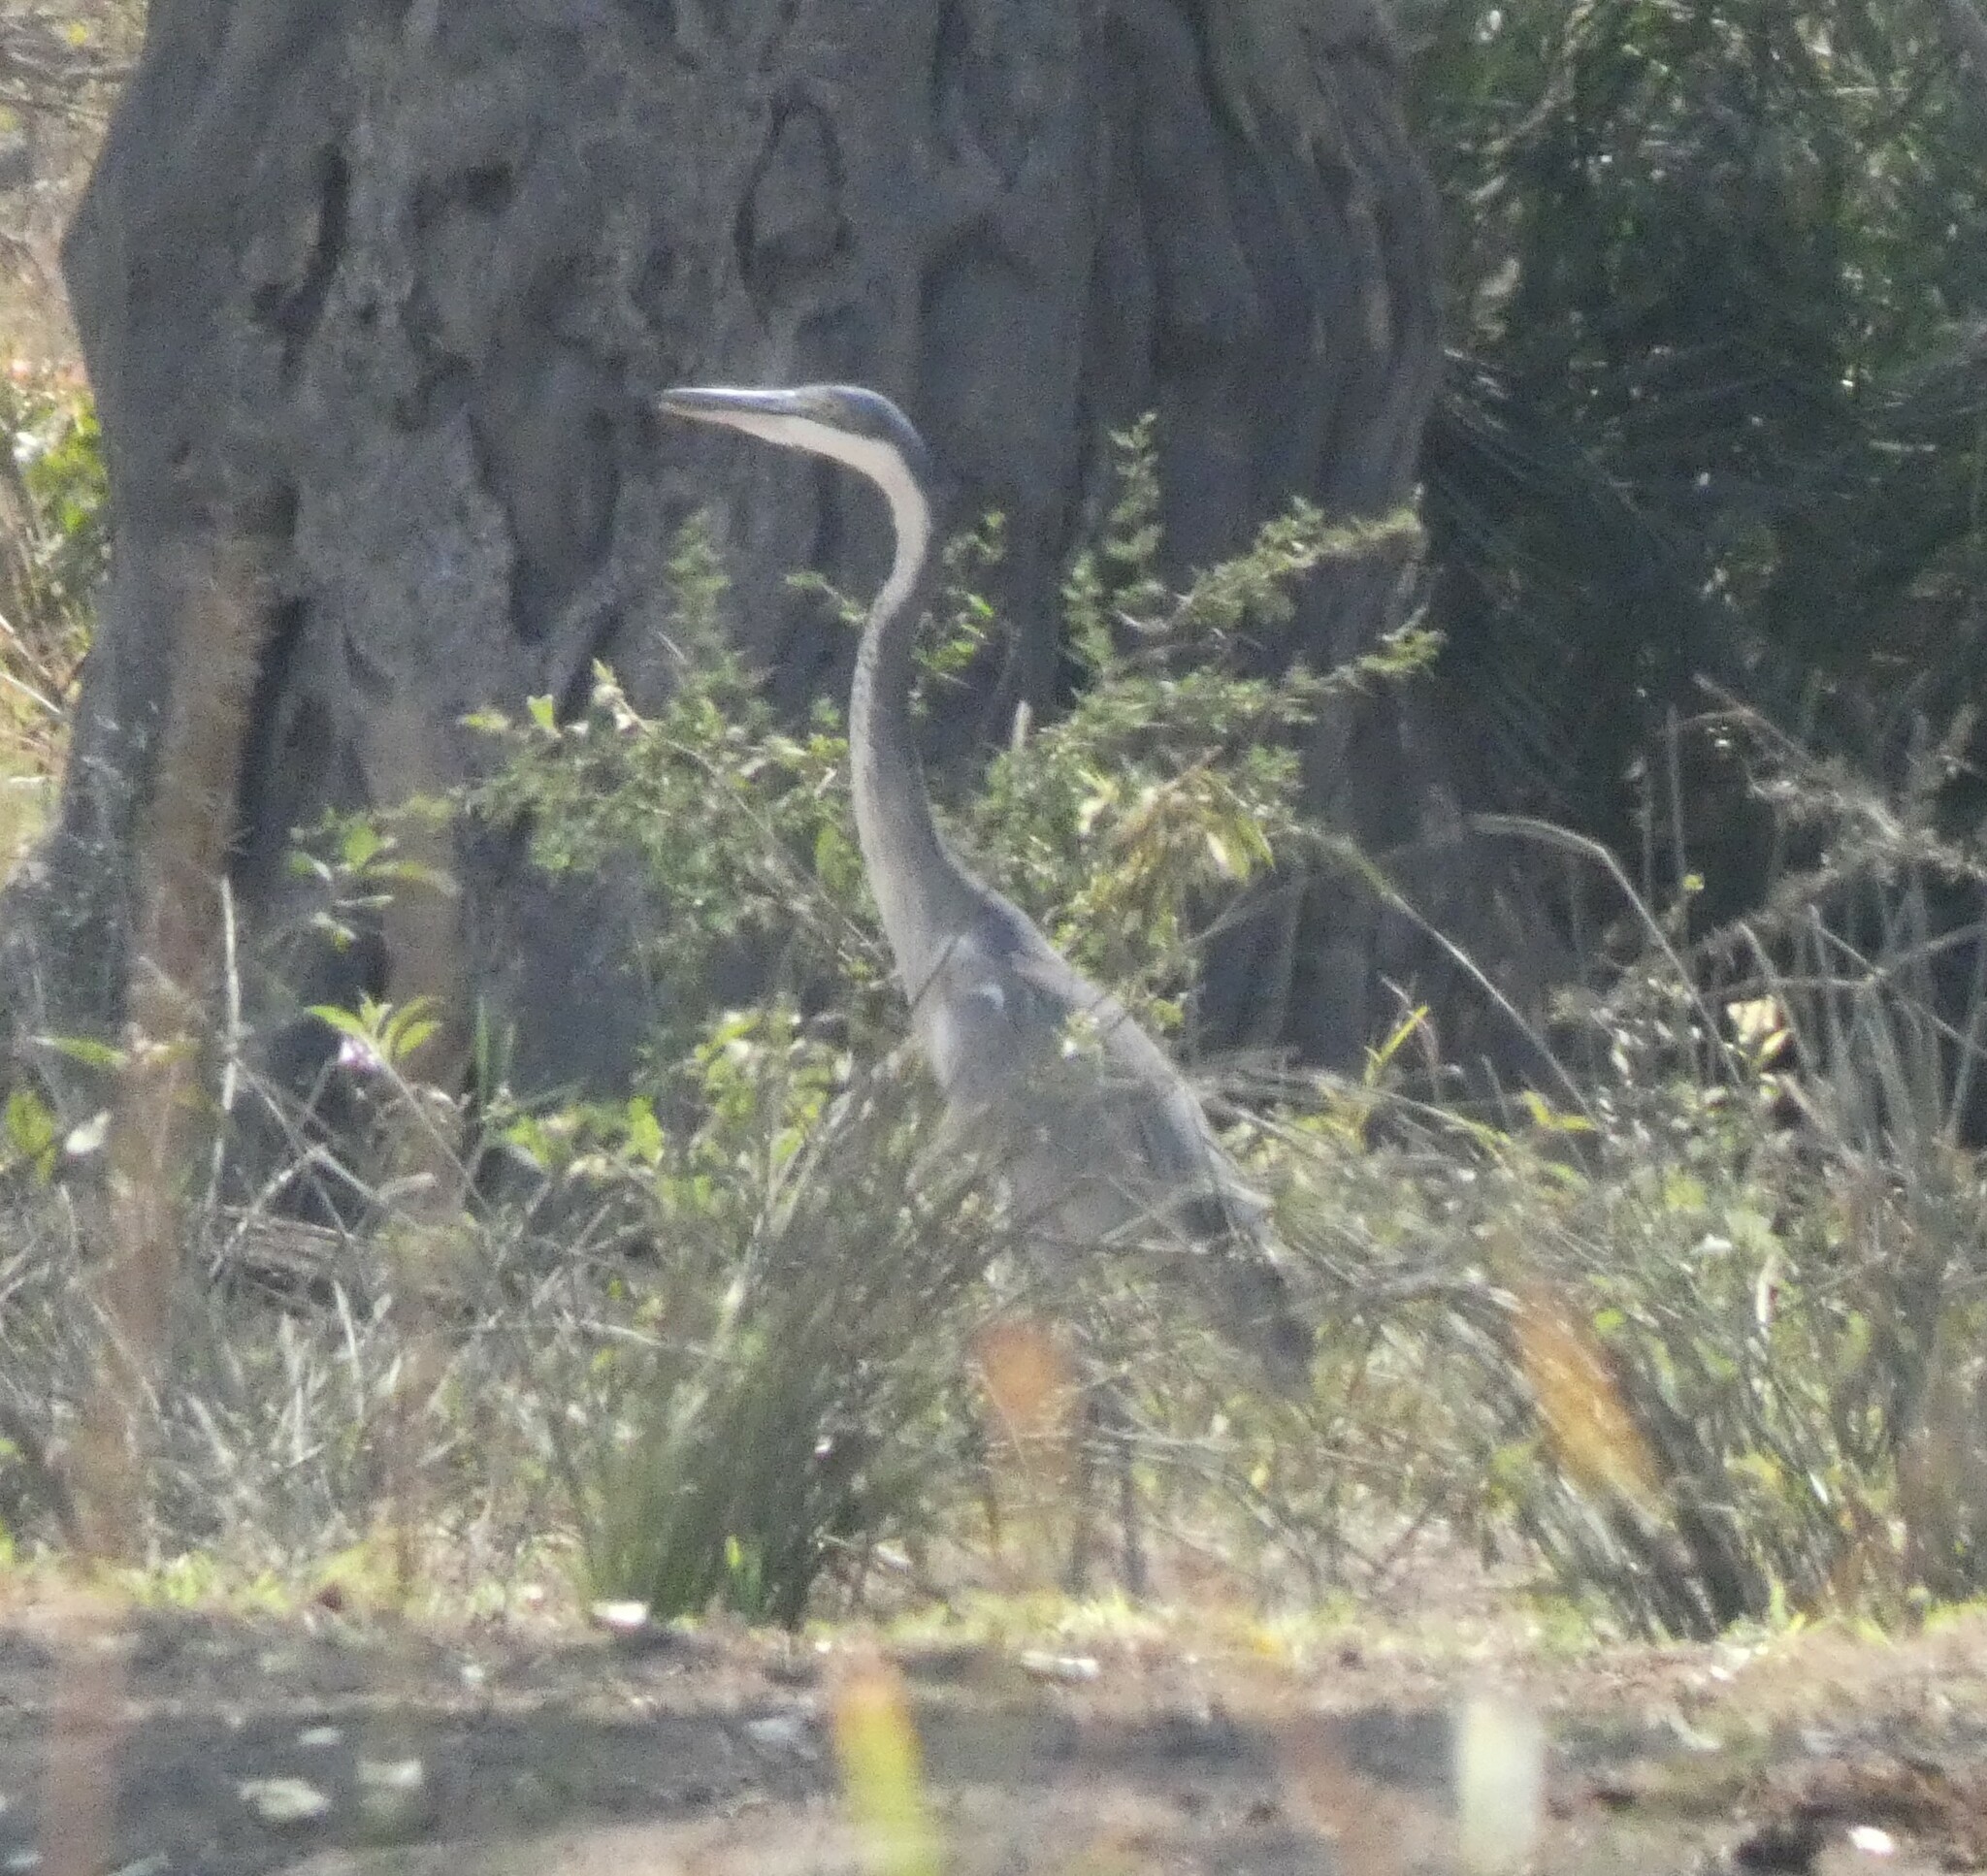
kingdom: Animalia
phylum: Chordata
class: Aves
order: Pelecaniformes
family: Ardeidae
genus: Ardea
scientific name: Ardea melanocephala
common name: Black-headed heron
